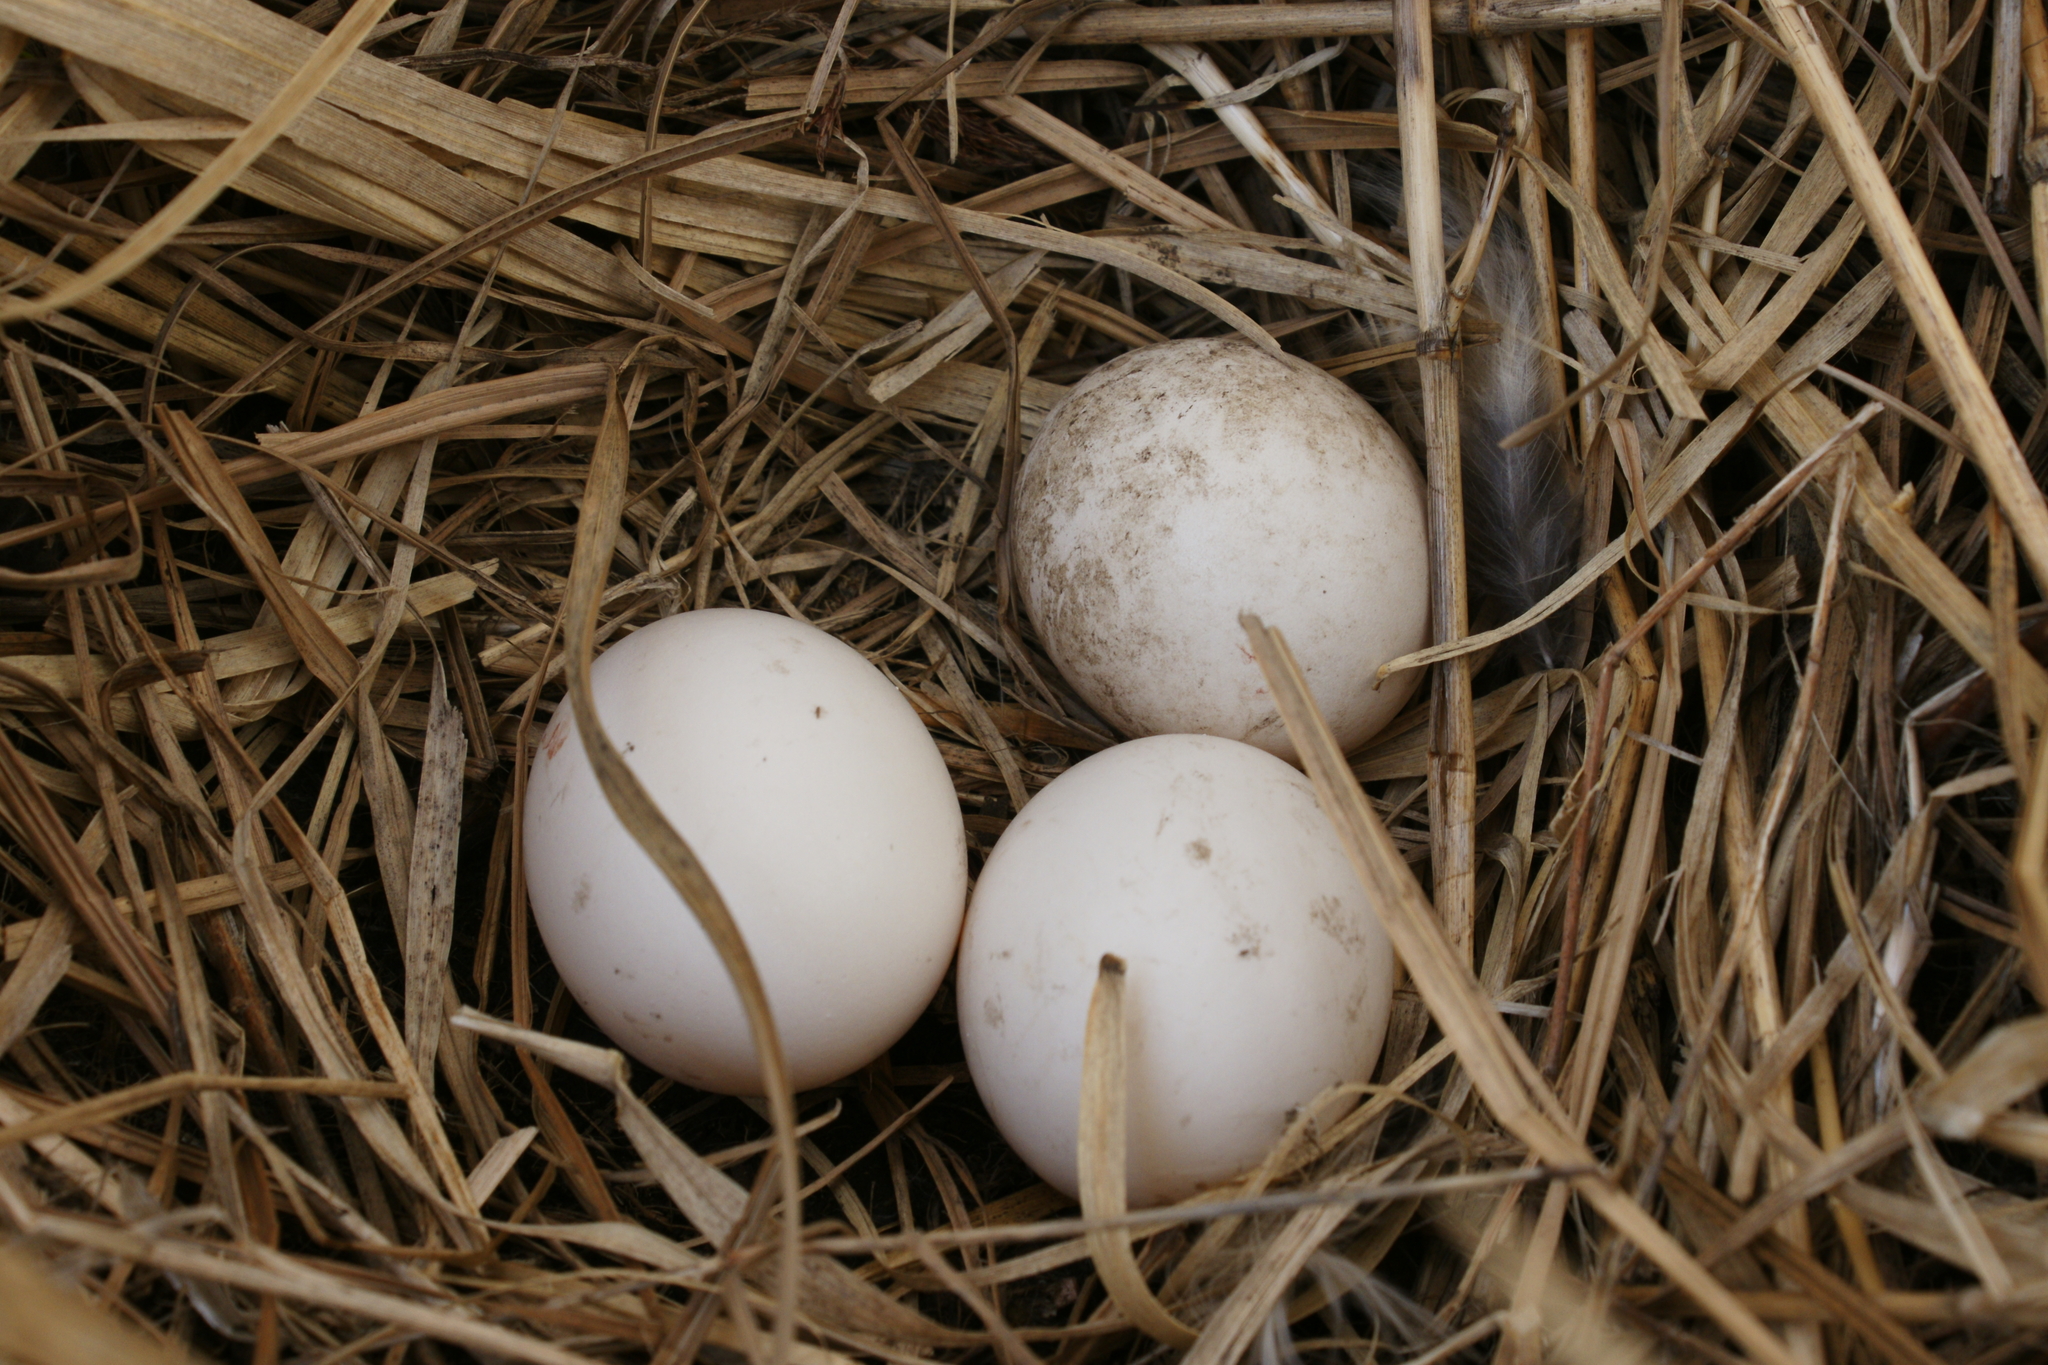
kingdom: Animalia
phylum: Chordata
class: Aves
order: Strigiformes
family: Strigidae
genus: Asio
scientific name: Asio flammeus
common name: Short-eared owl
